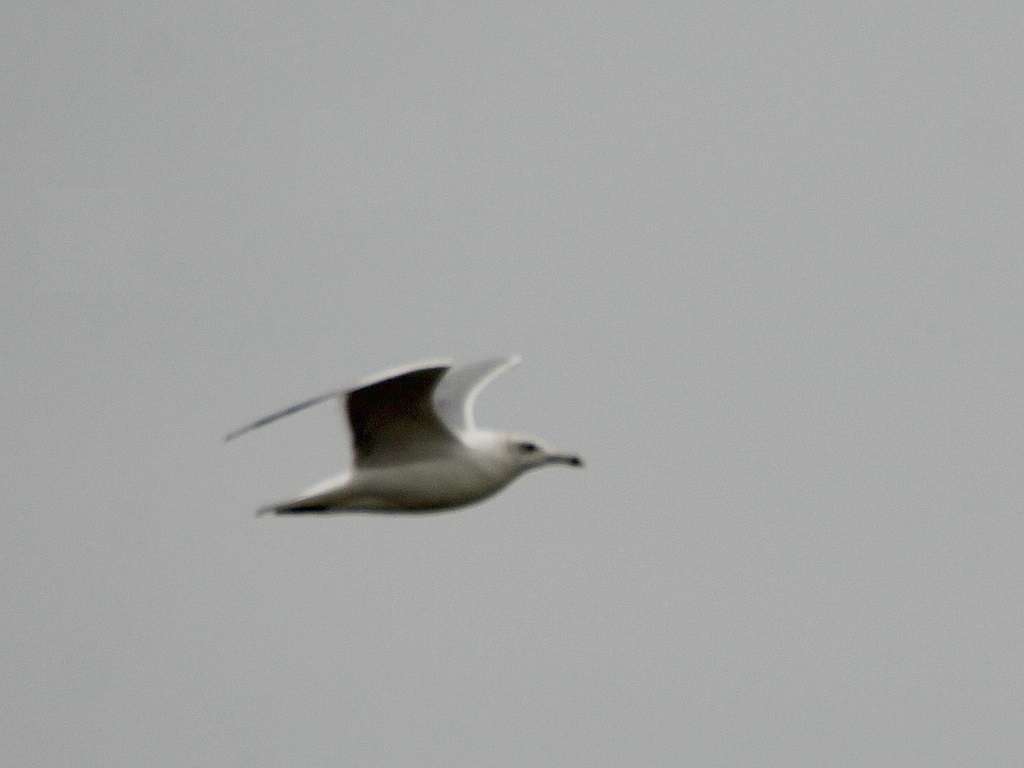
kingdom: Animalia
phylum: Chordata
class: Aves
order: Charadriiformes
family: Laridae
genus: Larus
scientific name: Larus cachinnans
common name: Caspian gull
